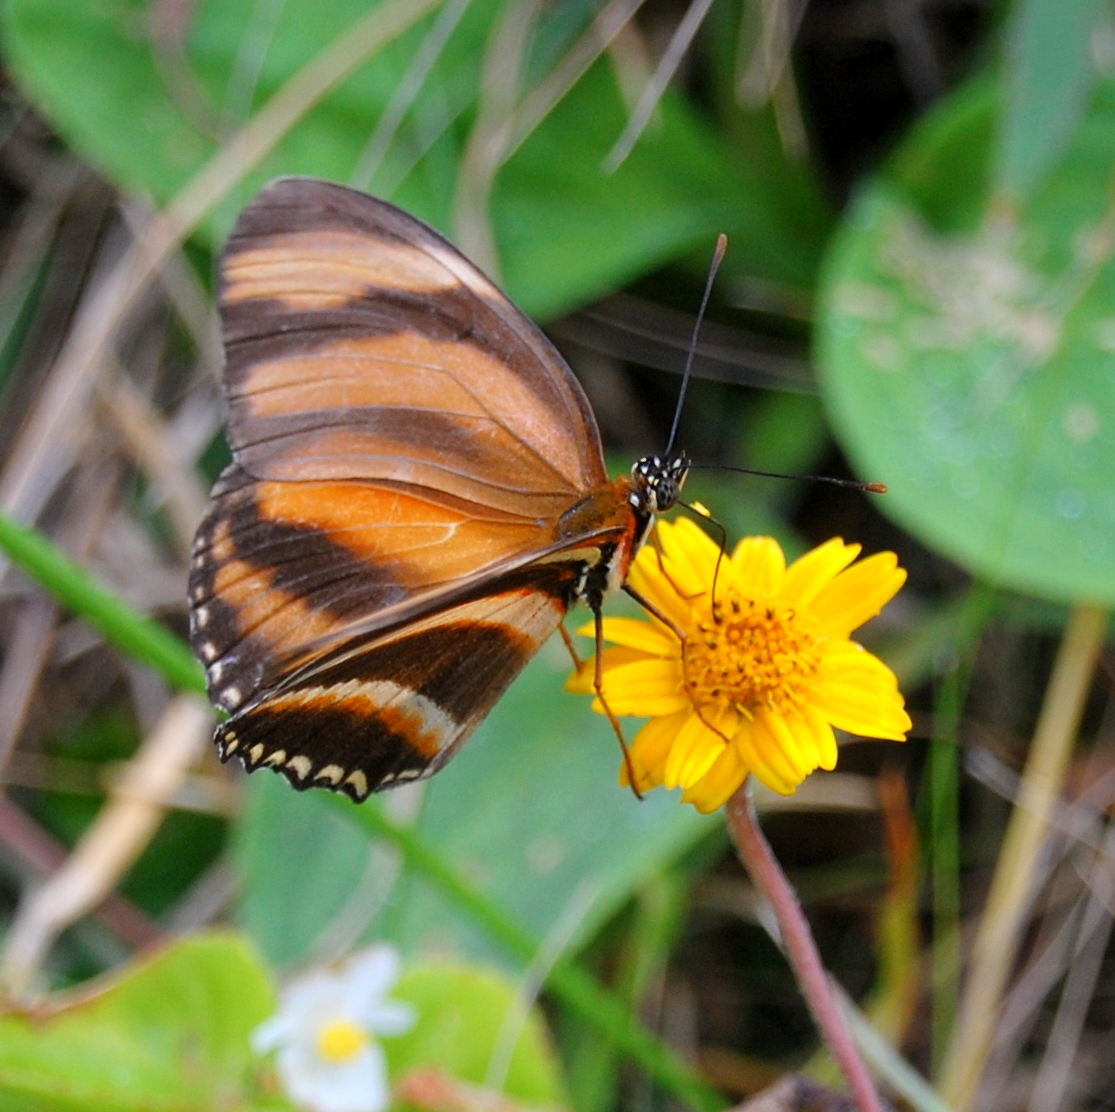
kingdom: Animalia
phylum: Arthropoda
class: Insecta
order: Lepidoptera
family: Nymphalidae
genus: Dryadula
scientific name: Dryadula phaetusa
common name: Banded orange heliconian
